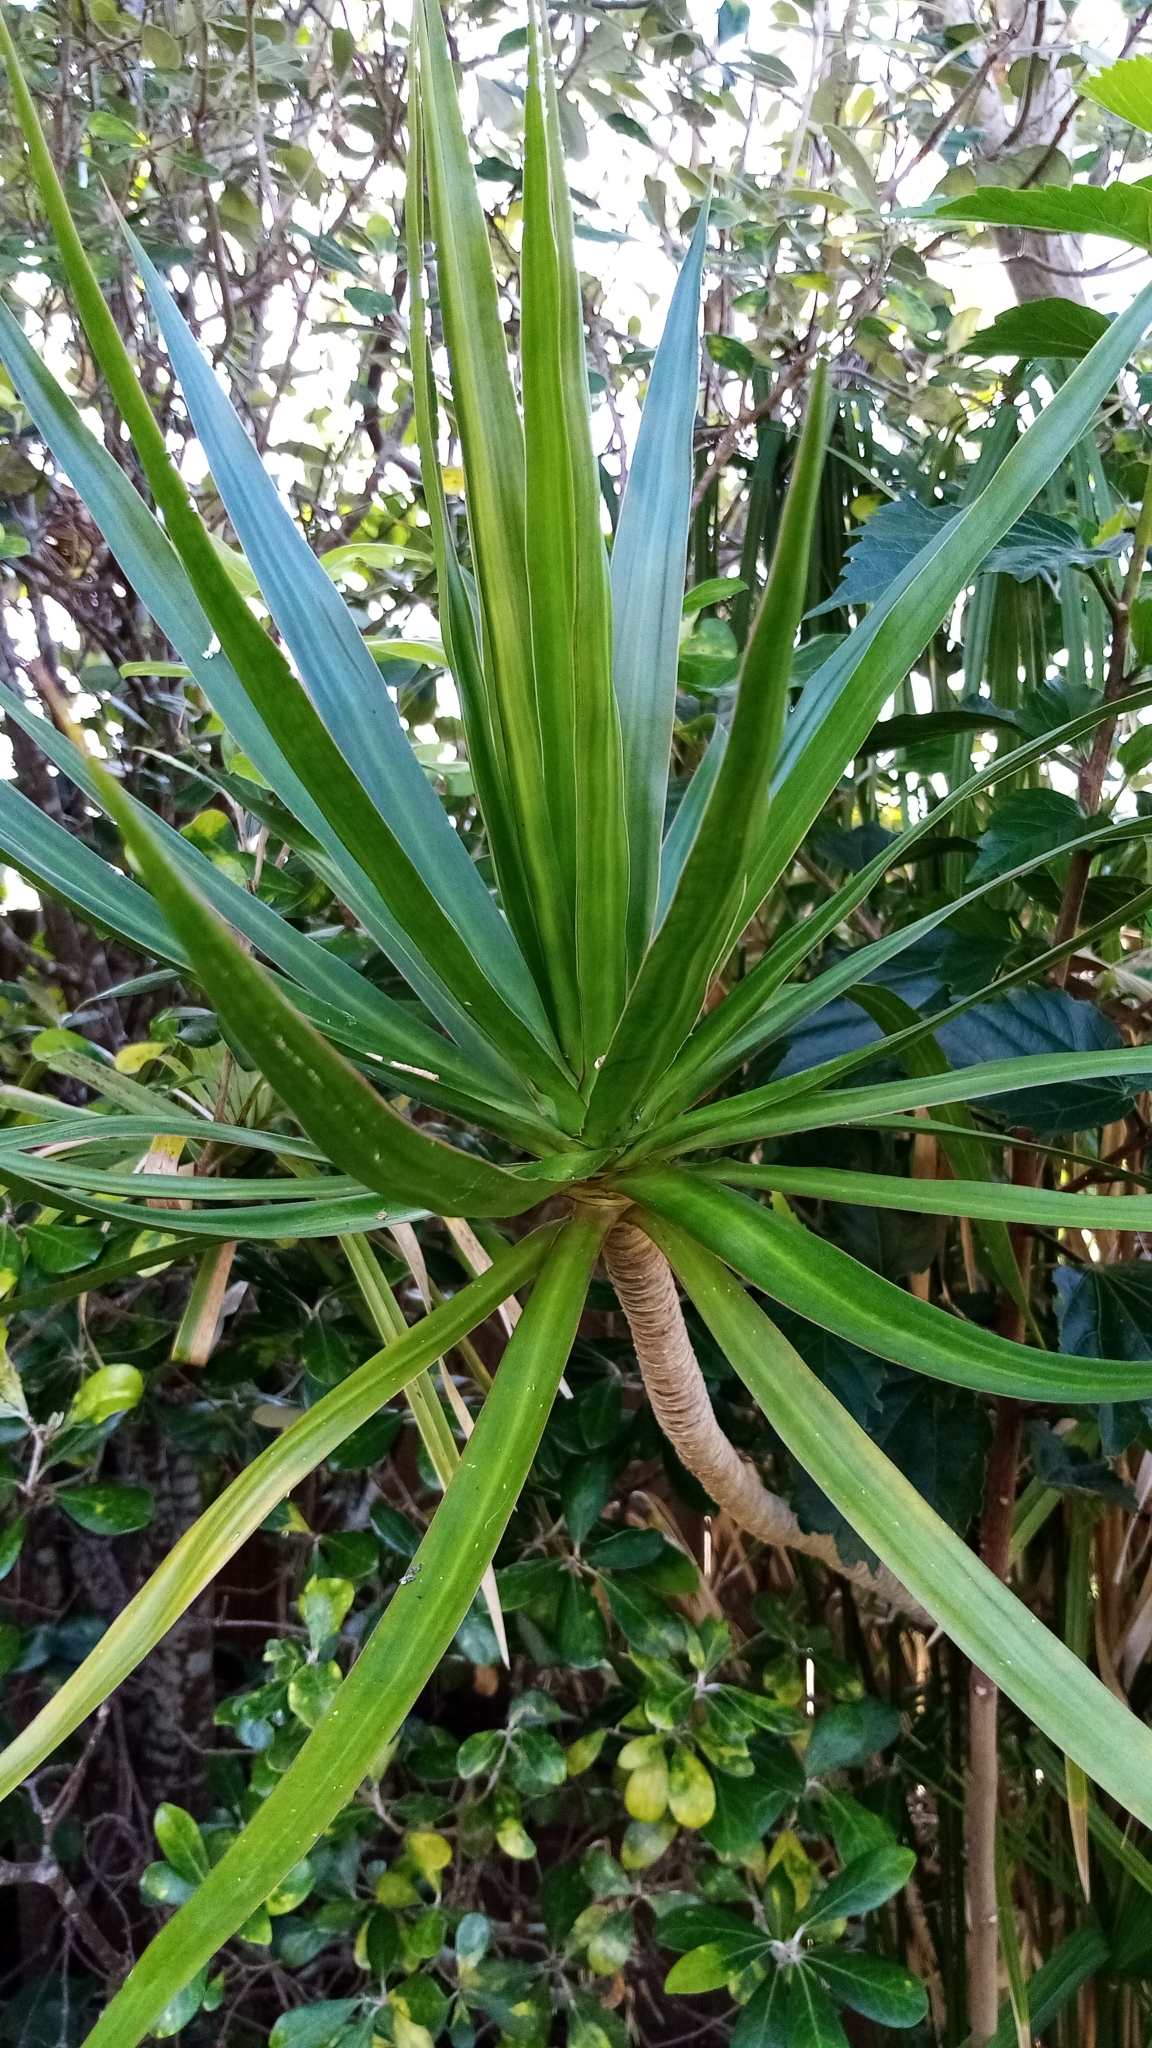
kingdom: Plantae
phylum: Tracheophyta
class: Liliopsida
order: Asparagales
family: Asparagaceae
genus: Dracaena
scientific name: Dracaena reflexa
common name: Song-of-india
